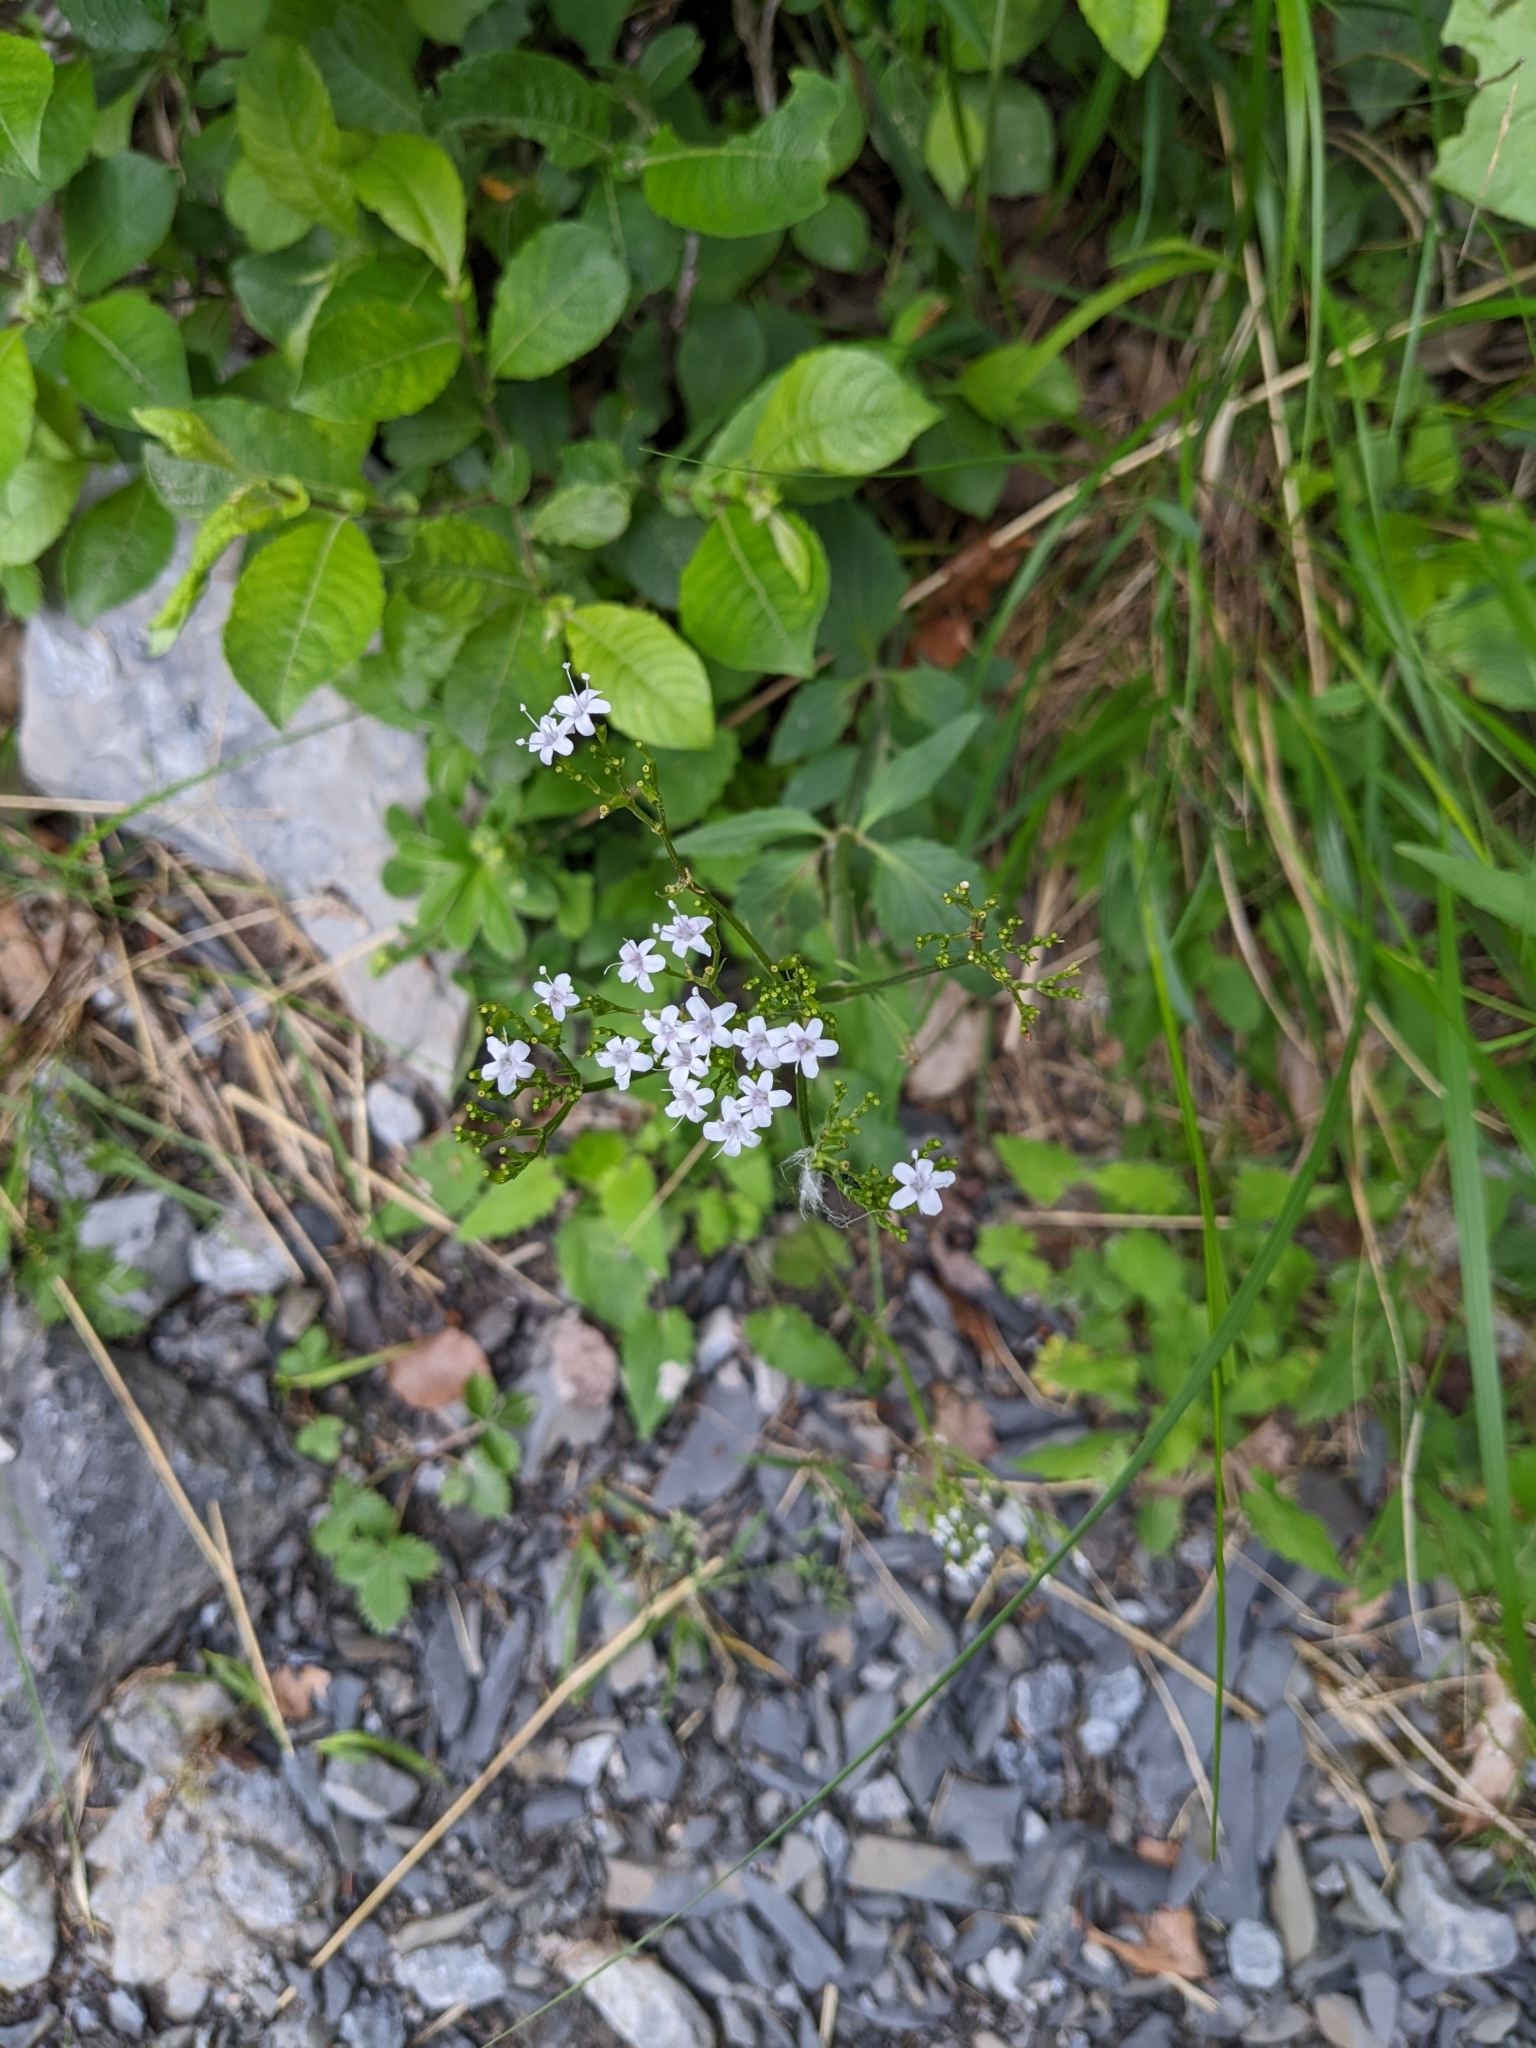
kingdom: Plantae
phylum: Tracheophyta
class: Magnoliopsida
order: Dipsacales
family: Caprifoliaceae
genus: Valeriana
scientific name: Valeriana tripteris
